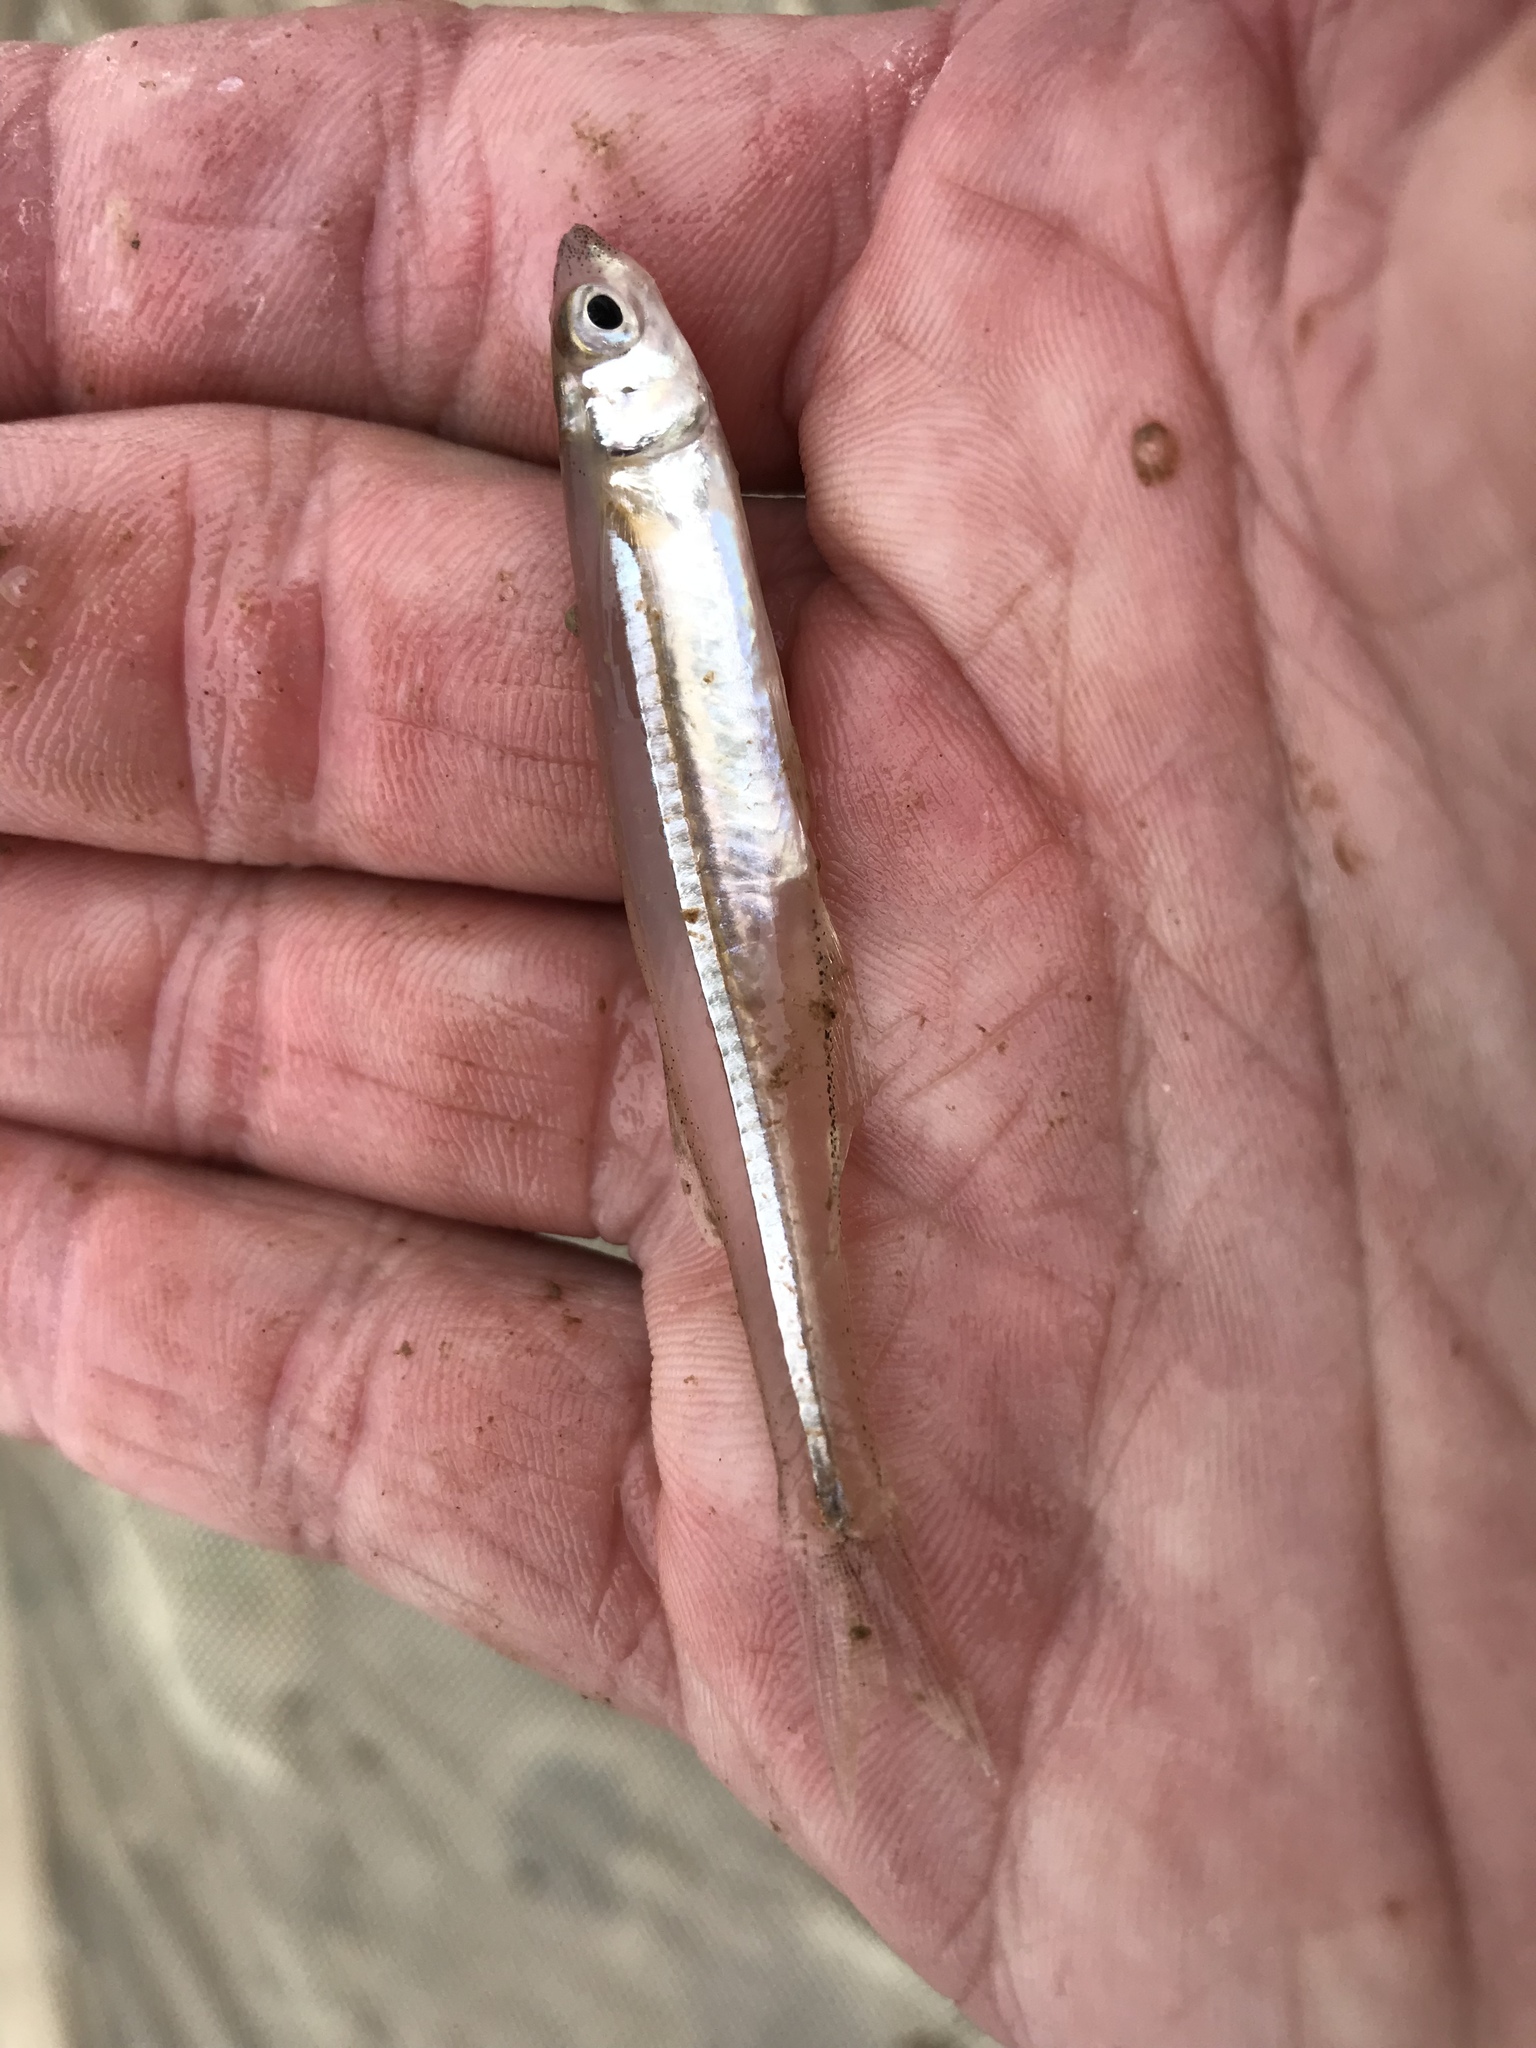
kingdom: Animalia
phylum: Chordata
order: Atheriniformes
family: Atherinopsidae
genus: Menidia
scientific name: Menidia beryllina
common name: Inland silverside
